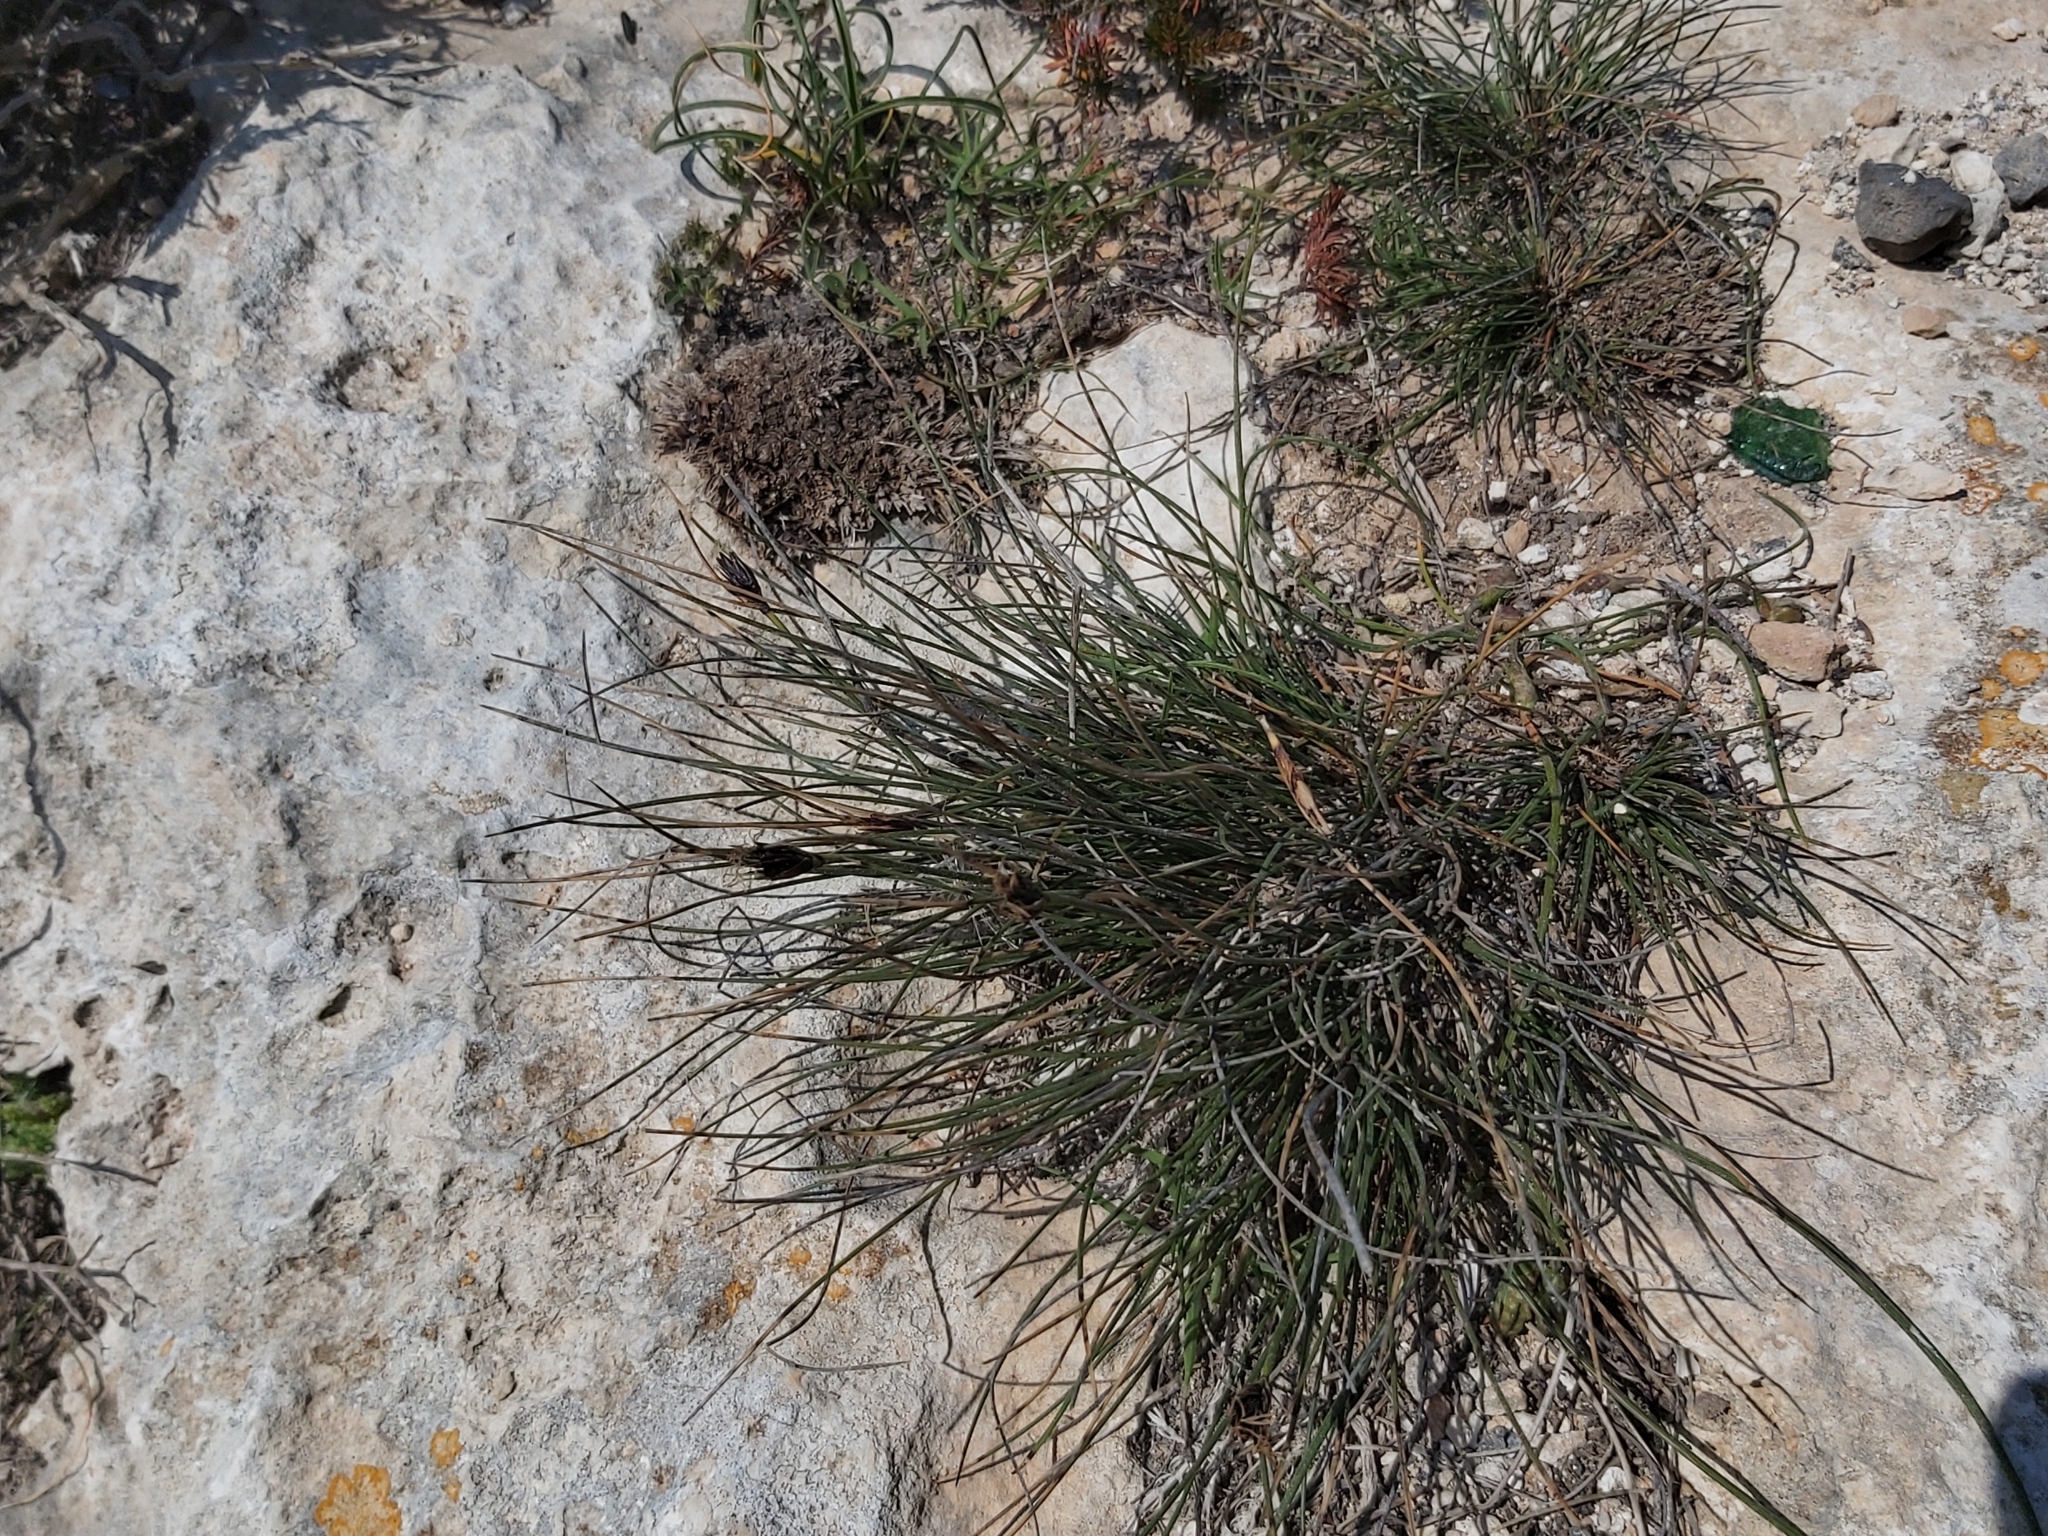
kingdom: Plantae
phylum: Tracheophyta
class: Liliopsida
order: Poales
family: Cyperaceae
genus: Schoenus
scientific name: Schoenus nigricans
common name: Black bog-rush
